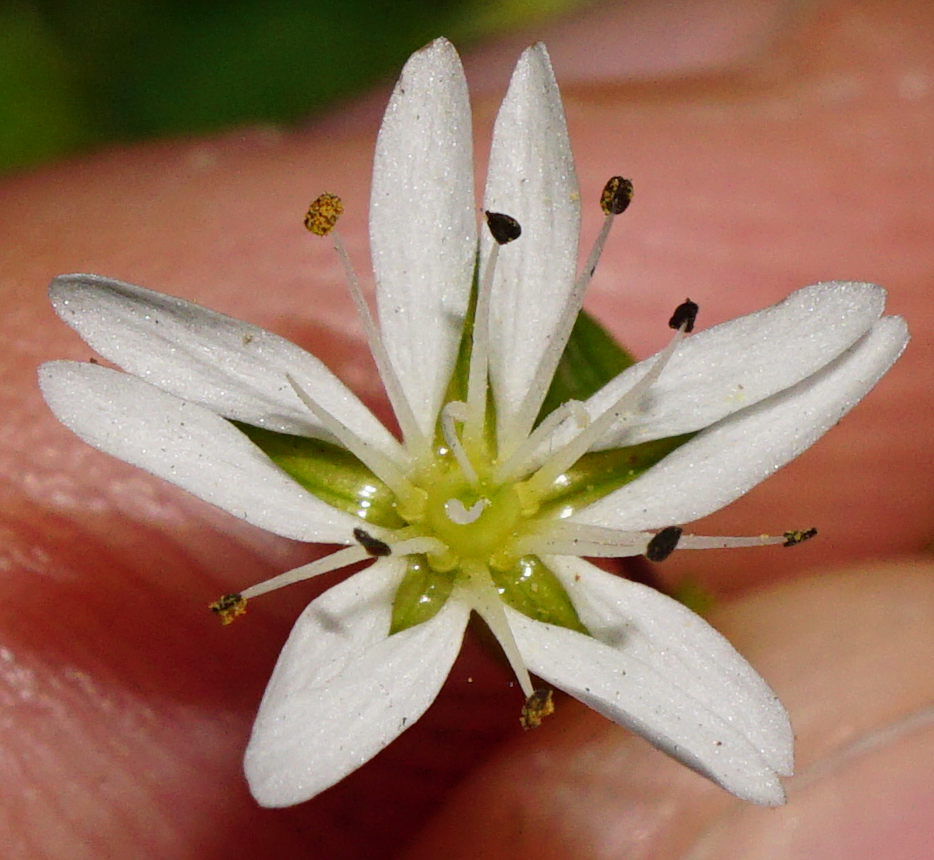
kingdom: Plantae
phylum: Tracheophyta
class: Magnoliopsida
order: Caryophyllales
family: Caryophyllaceae
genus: Stellaria
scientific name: Stellaria graminea
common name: Grass-like starwort
